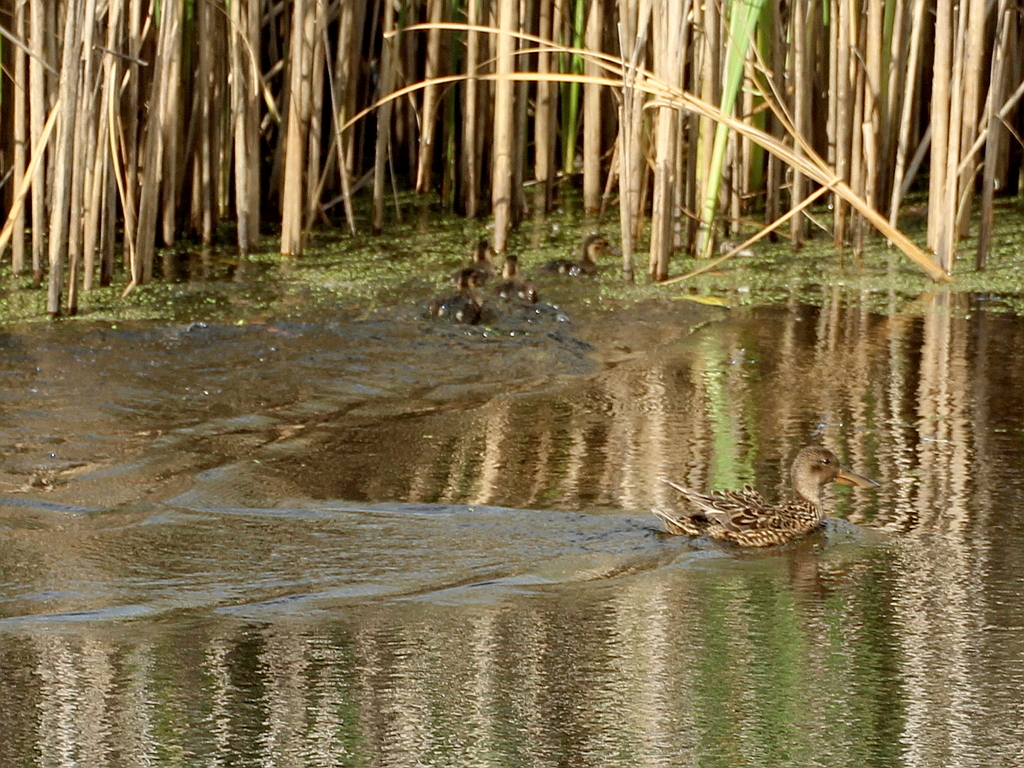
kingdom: Animalia
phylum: Chordata
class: Aves
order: Anseriformes
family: Anatidae
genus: Spatula
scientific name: Spatula clypeata
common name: Northern shoveler
